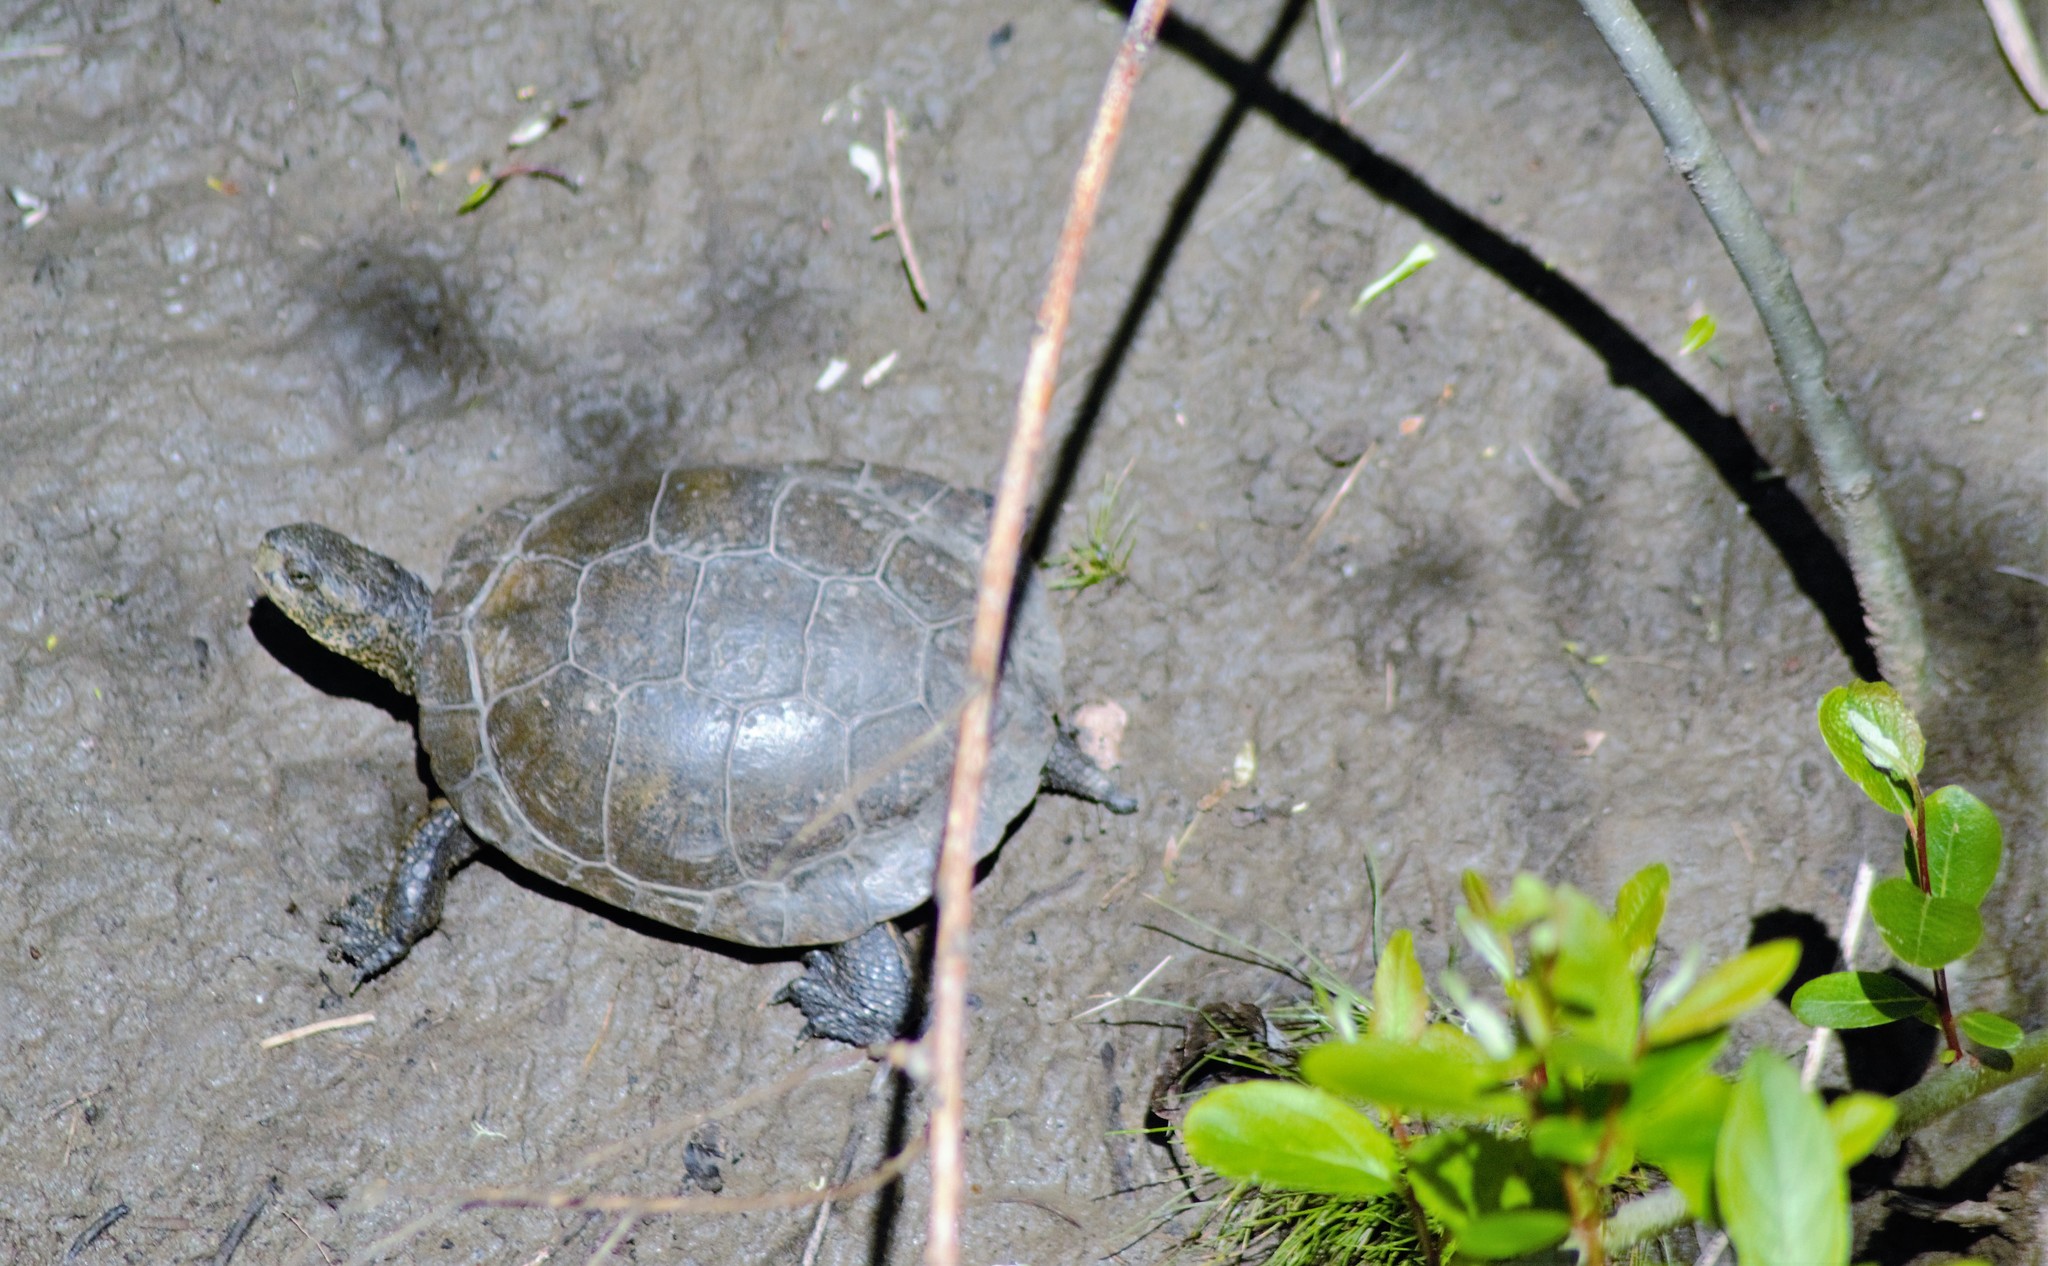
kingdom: Animalia
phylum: Chordata
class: Testudines
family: Emydidae
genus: Actinemys
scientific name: Actinemys marmorata
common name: Western pond turtle
